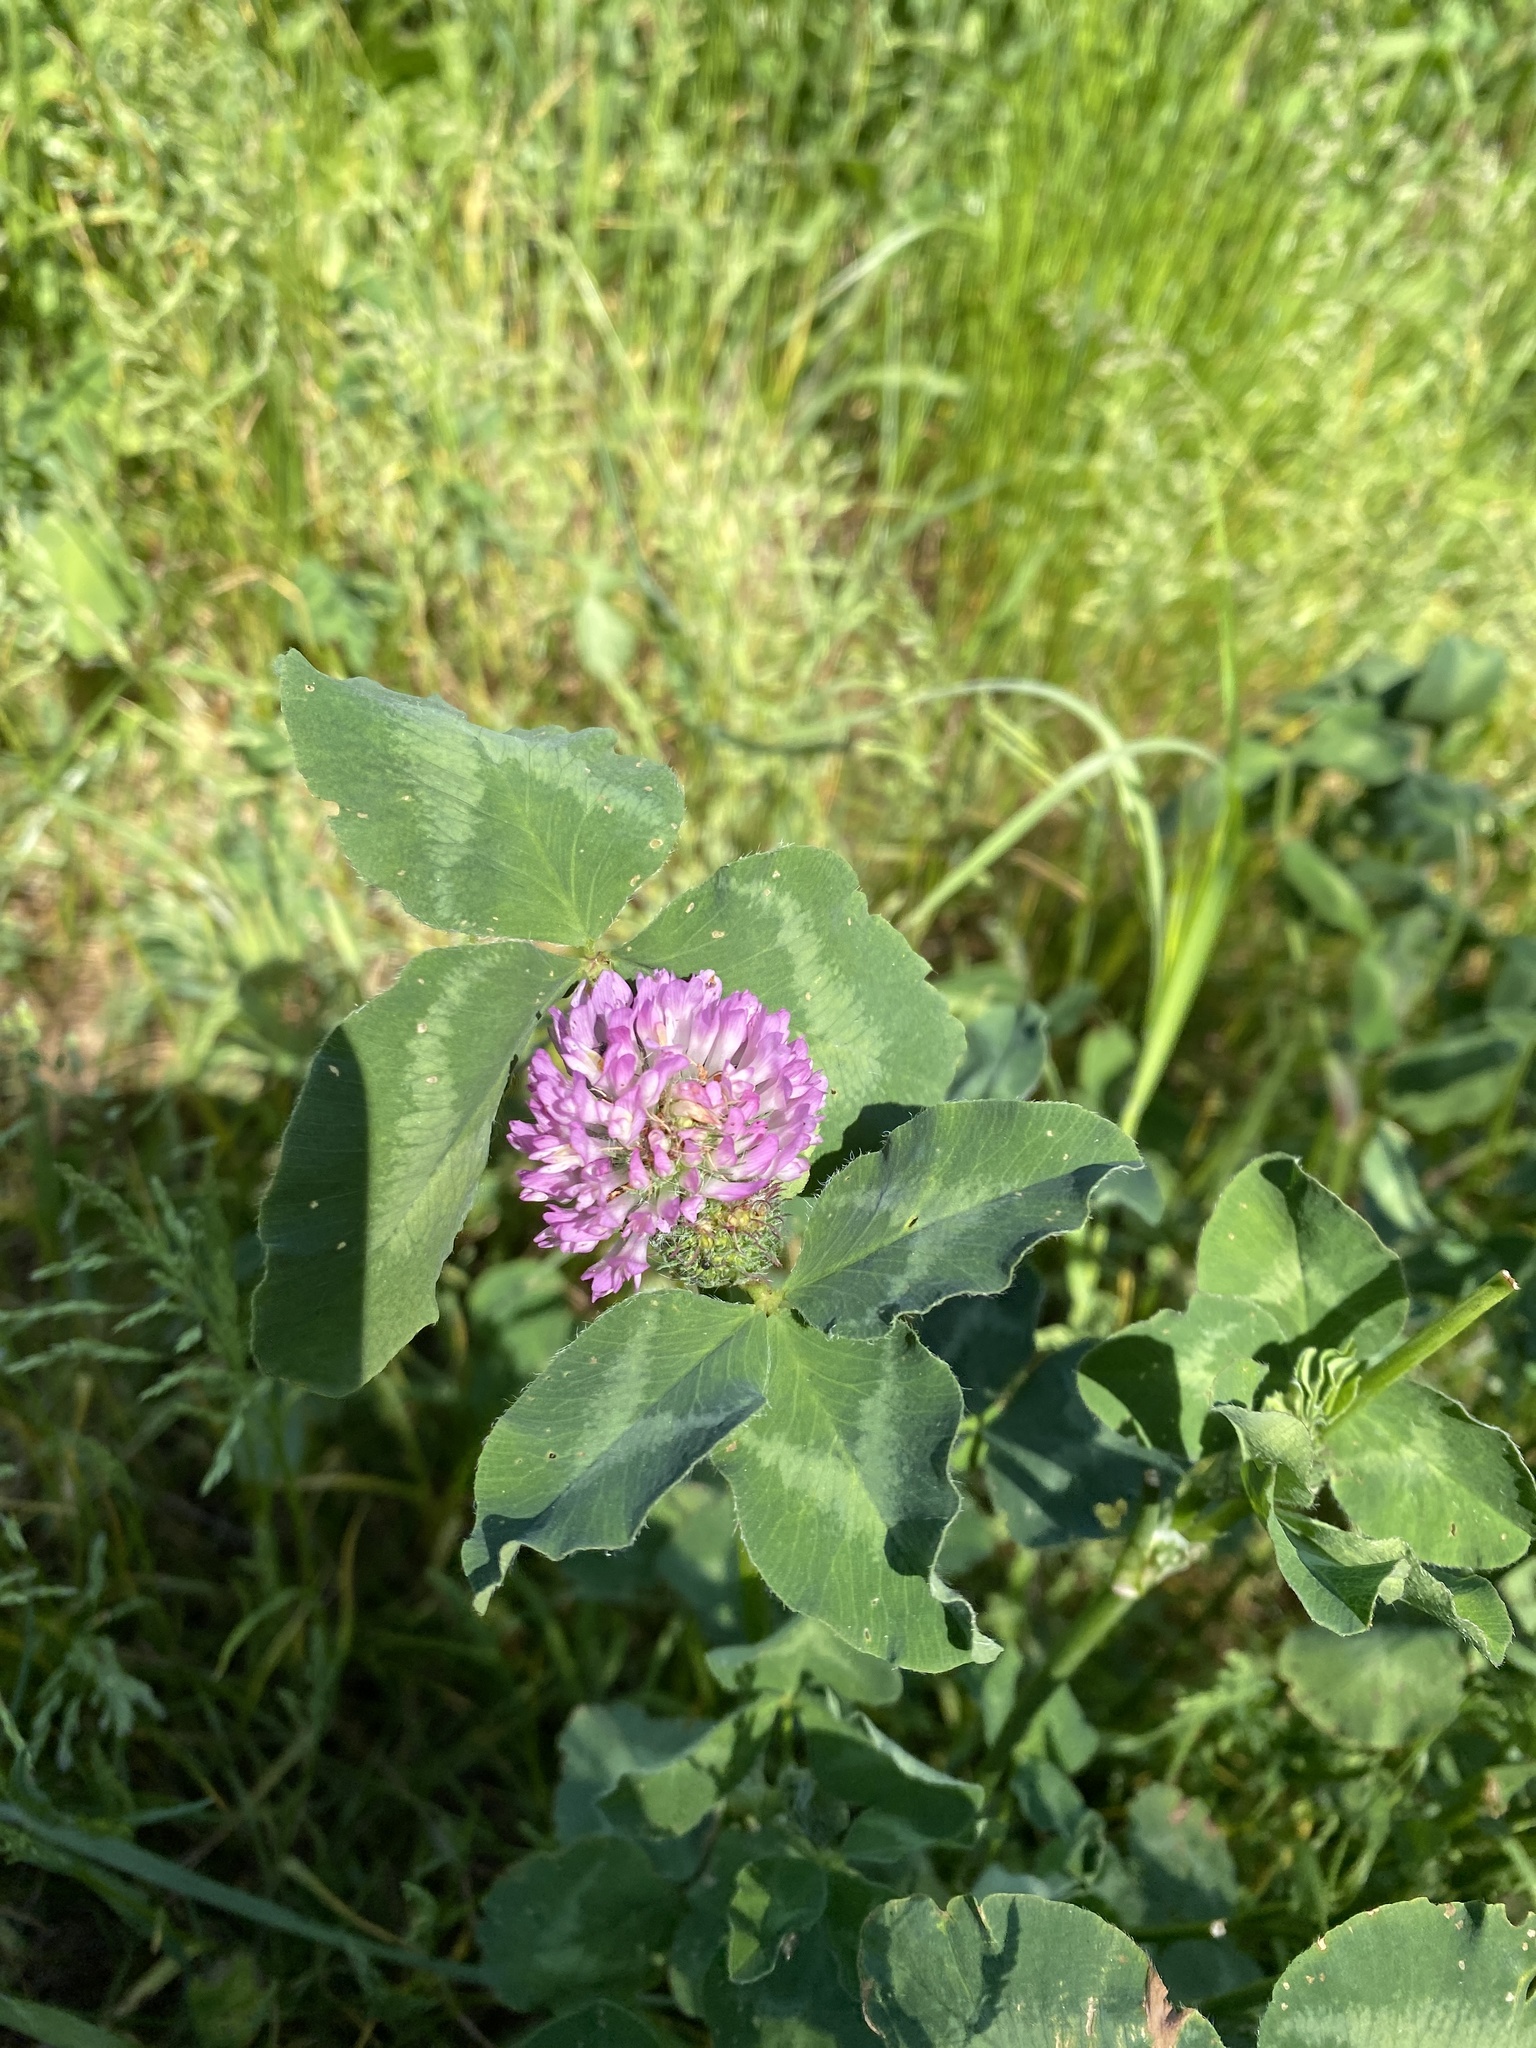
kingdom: Plantae
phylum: Tracheophyta
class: Magnoliopsida
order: Fabales
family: Fabaceae
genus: Trifolium
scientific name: Trifolium pratense
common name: Red clover
